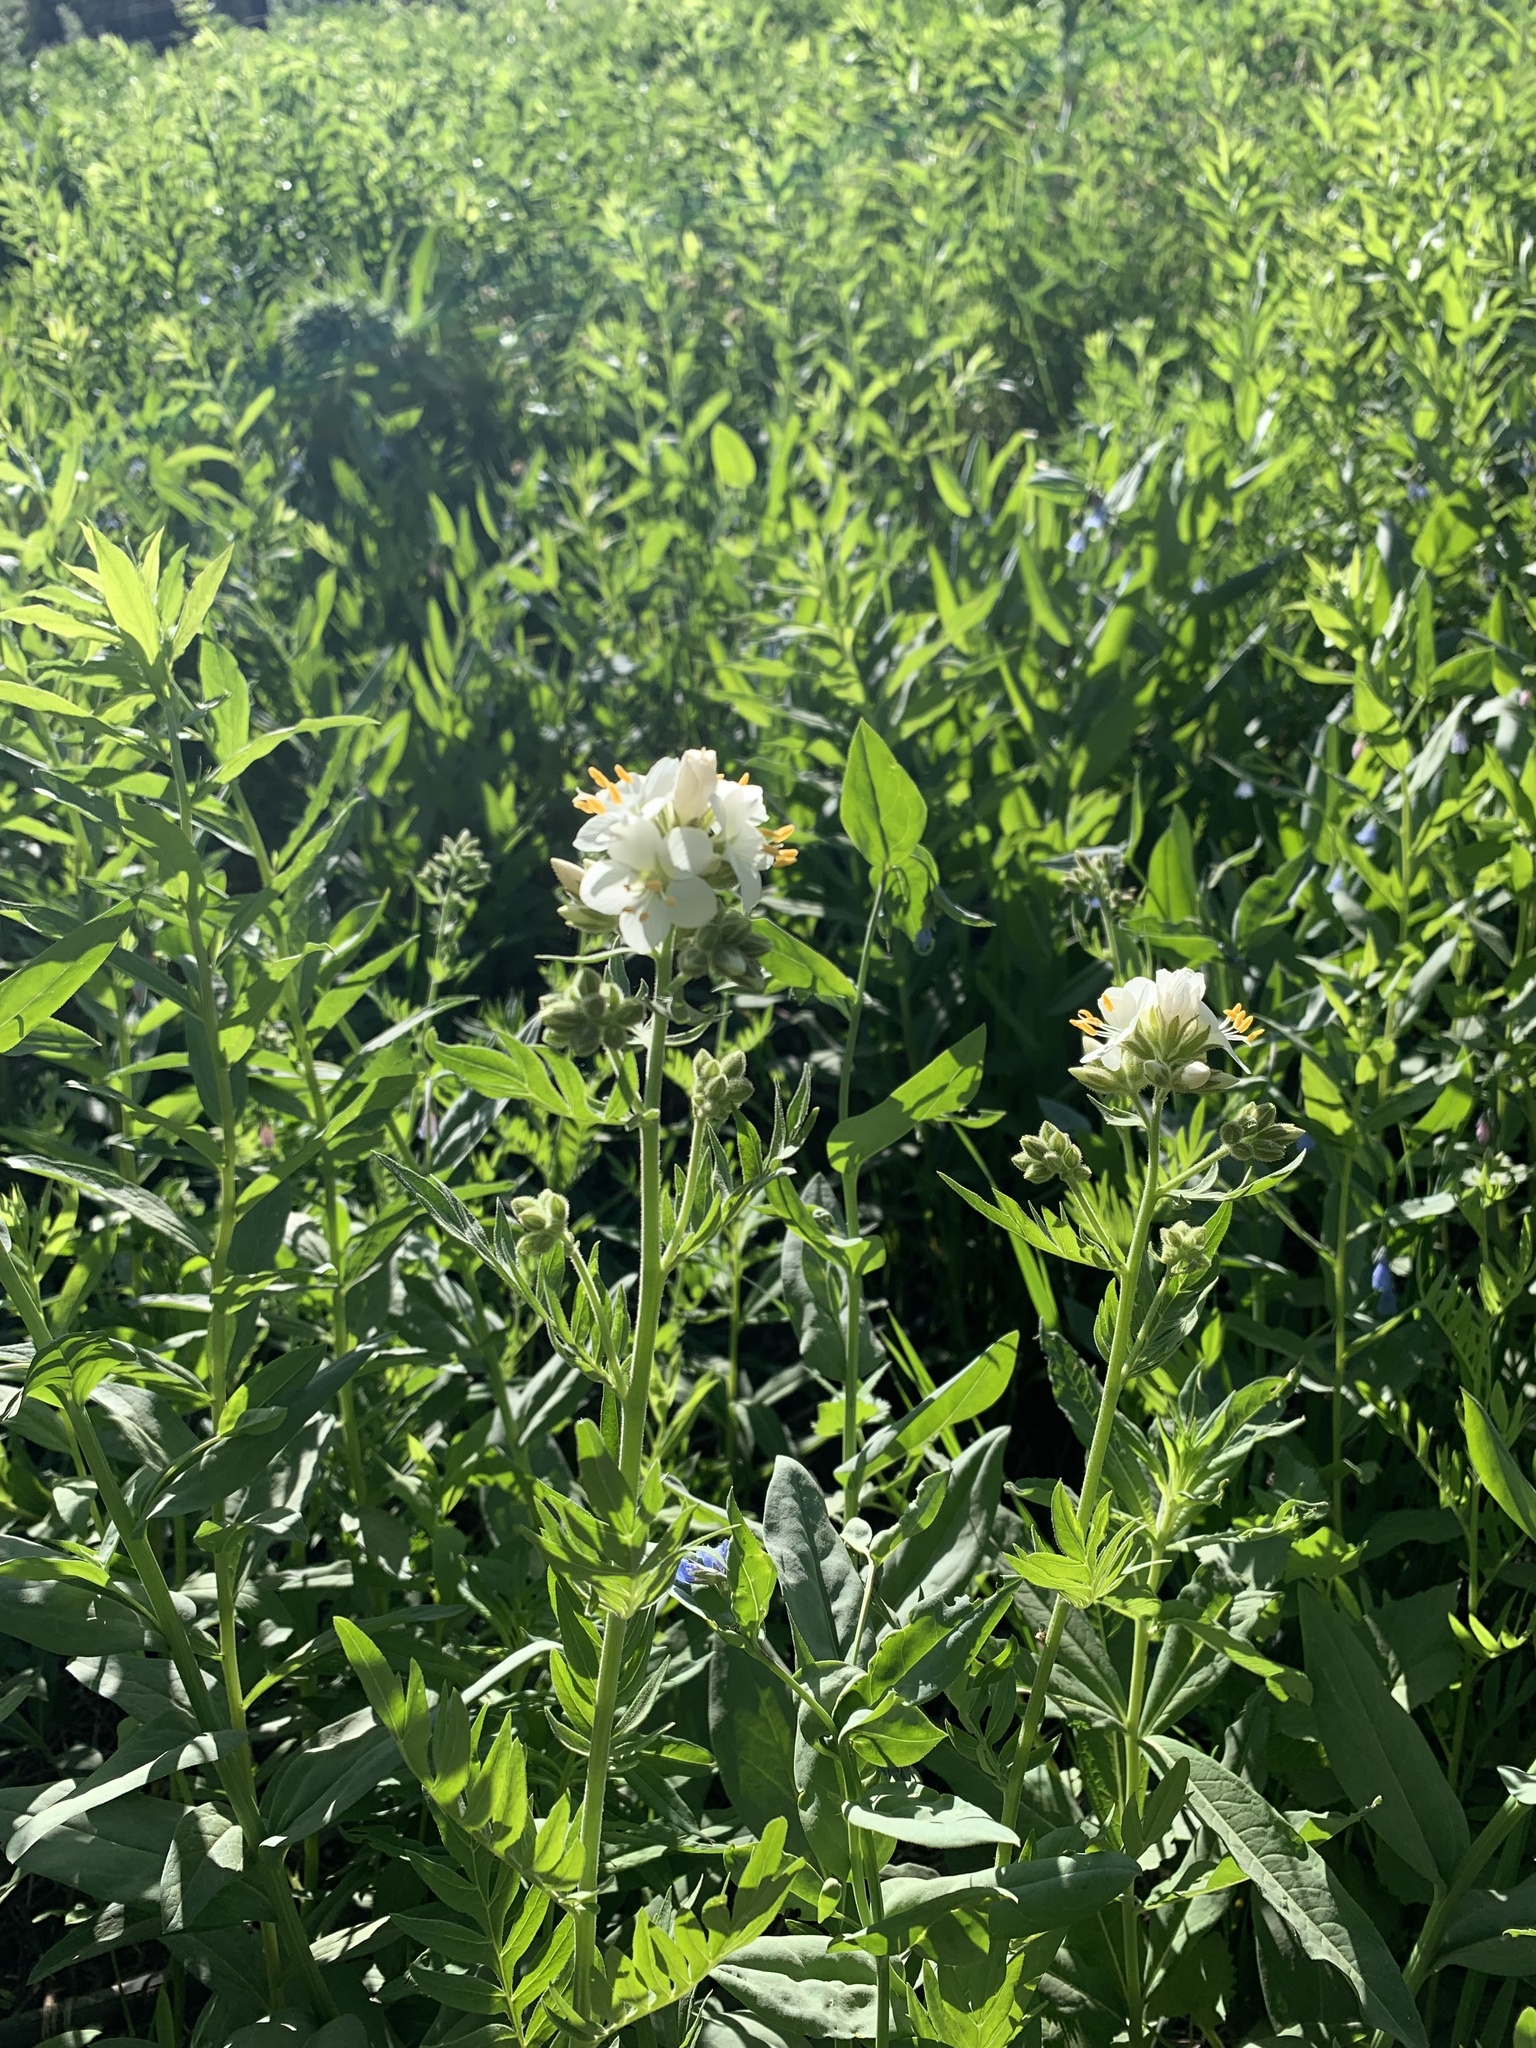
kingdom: Plantae
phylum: Tracheophyta
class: Magnoliopsida
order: Ericales
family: Polemoniaceae
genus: Polemonium
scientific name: Polemonium foliosissimum
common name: Leafy jacob's-ladder
